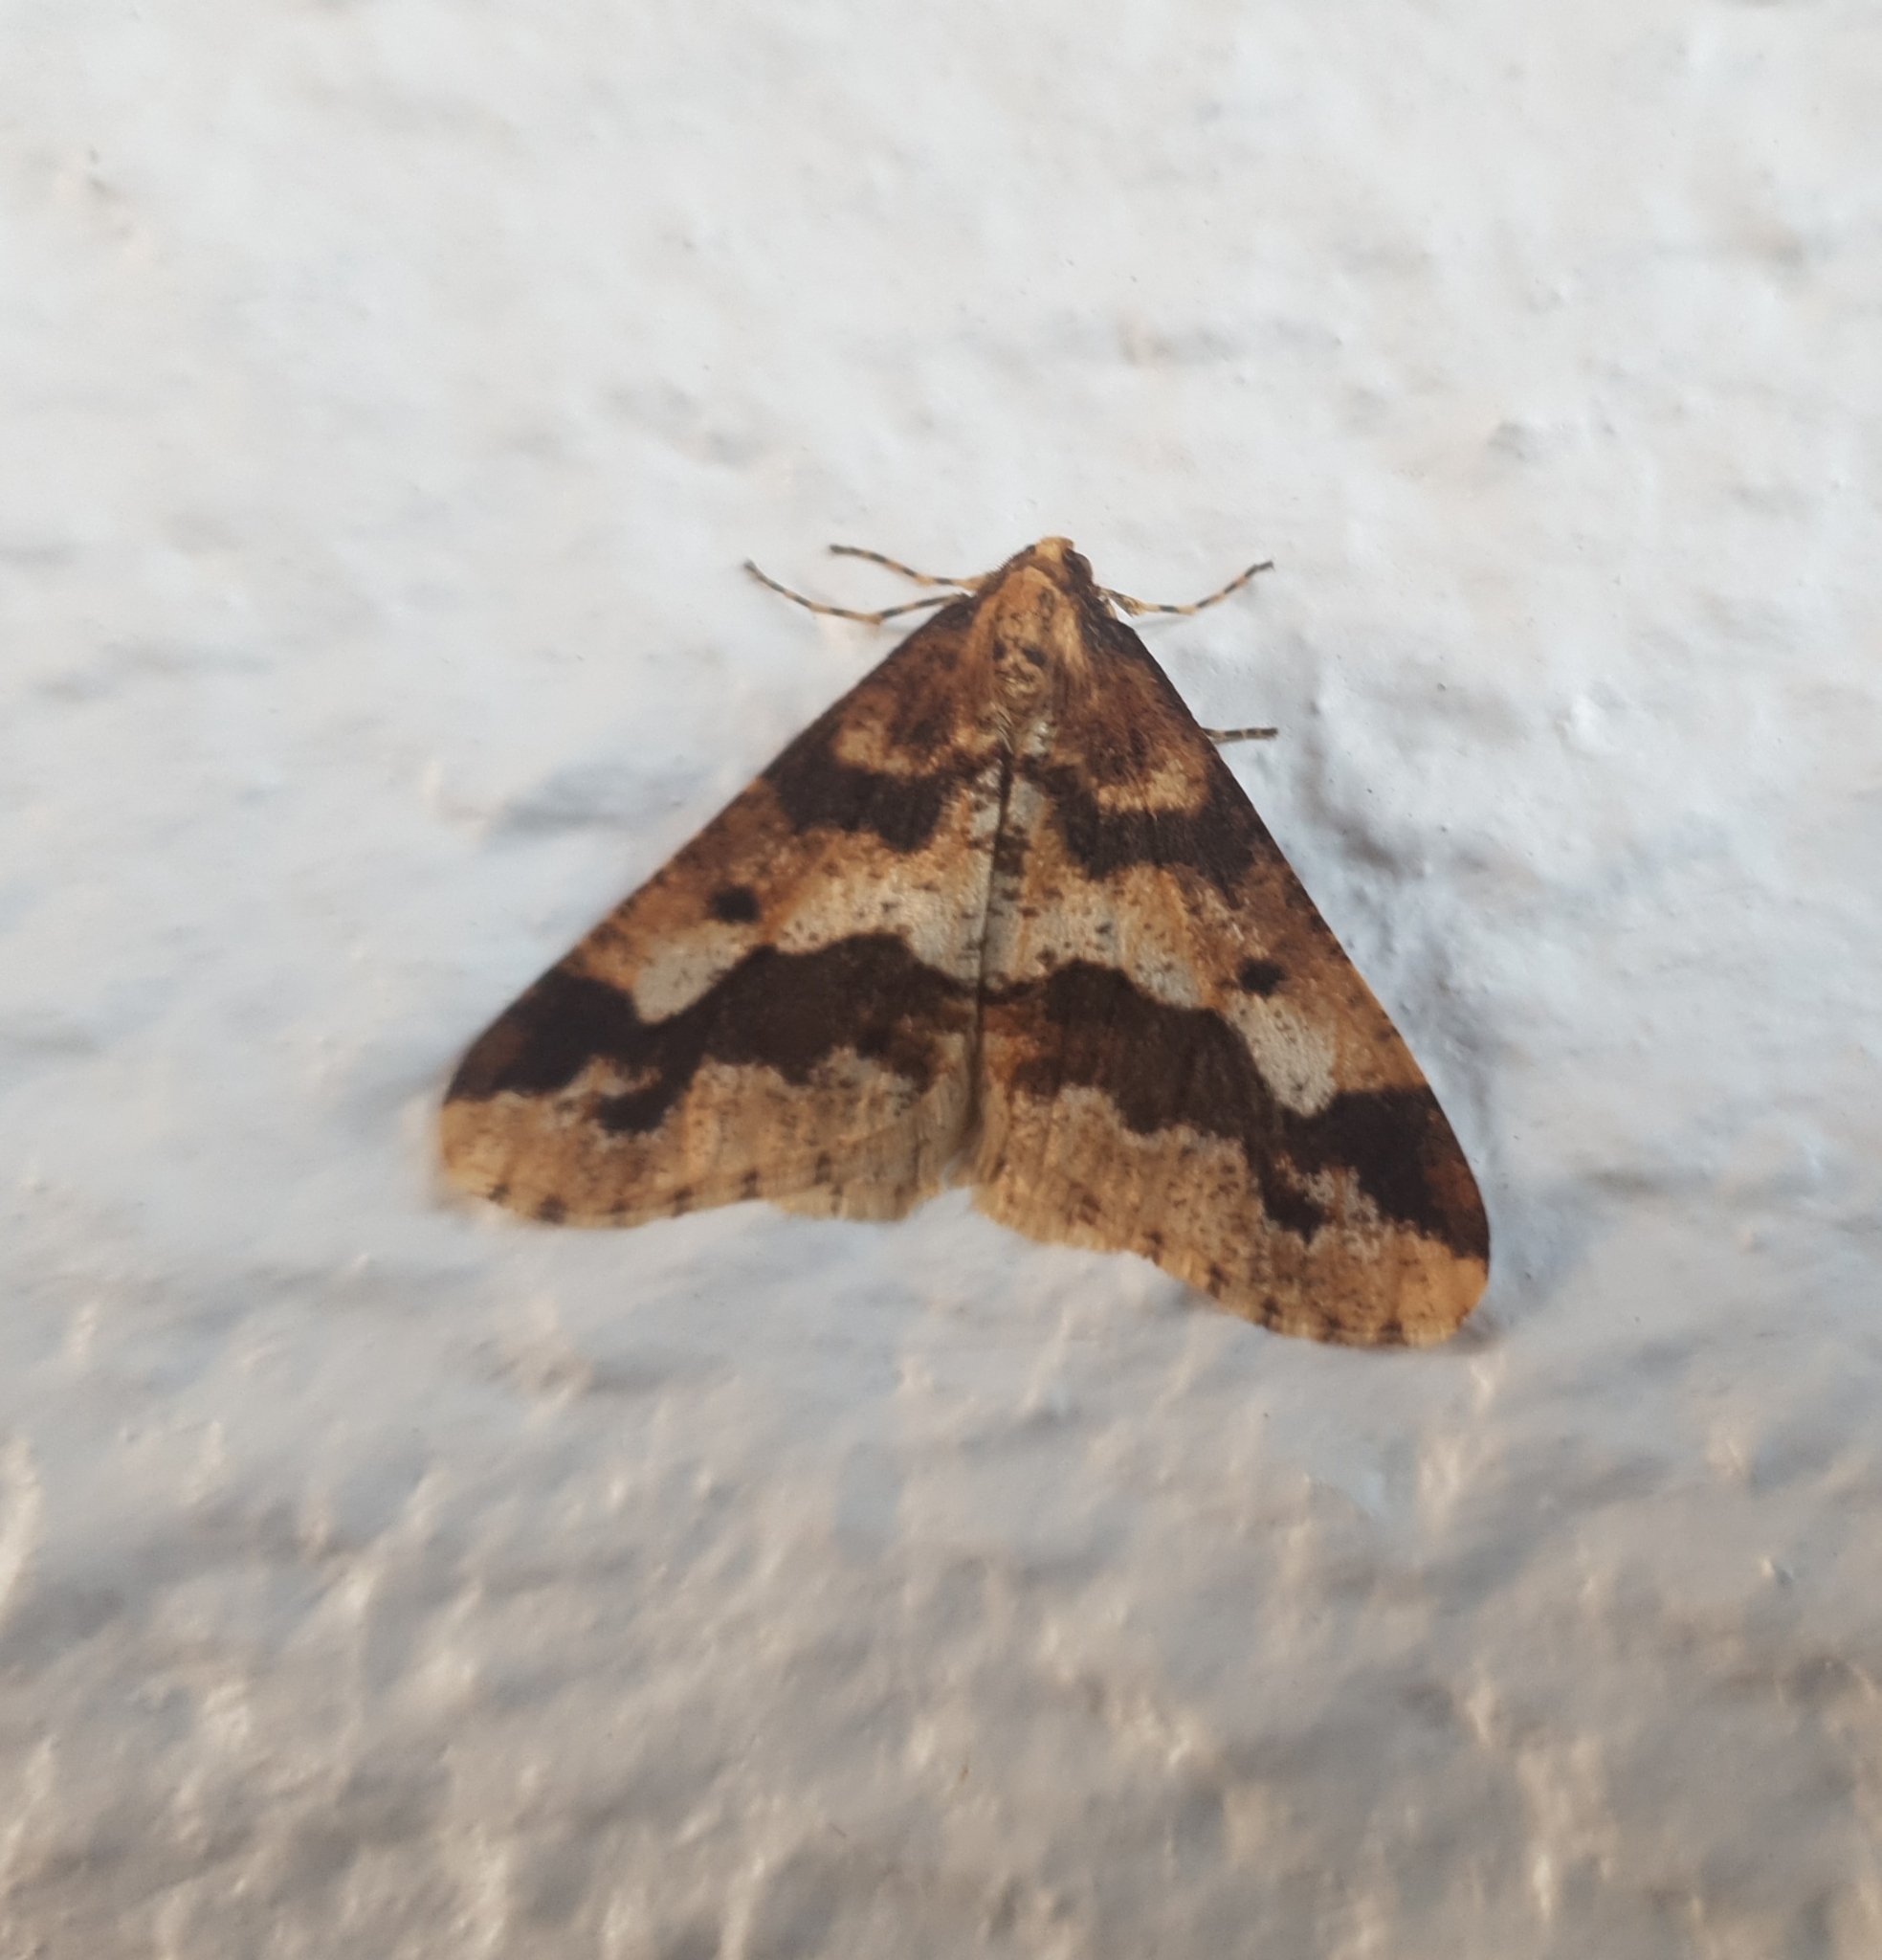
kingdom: Animalia
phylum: Arthropoda
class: Insecta
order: Lepidoptera
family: Geometridae
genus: Erannis
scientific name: Erannis defoliaria
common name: Mottled umber
